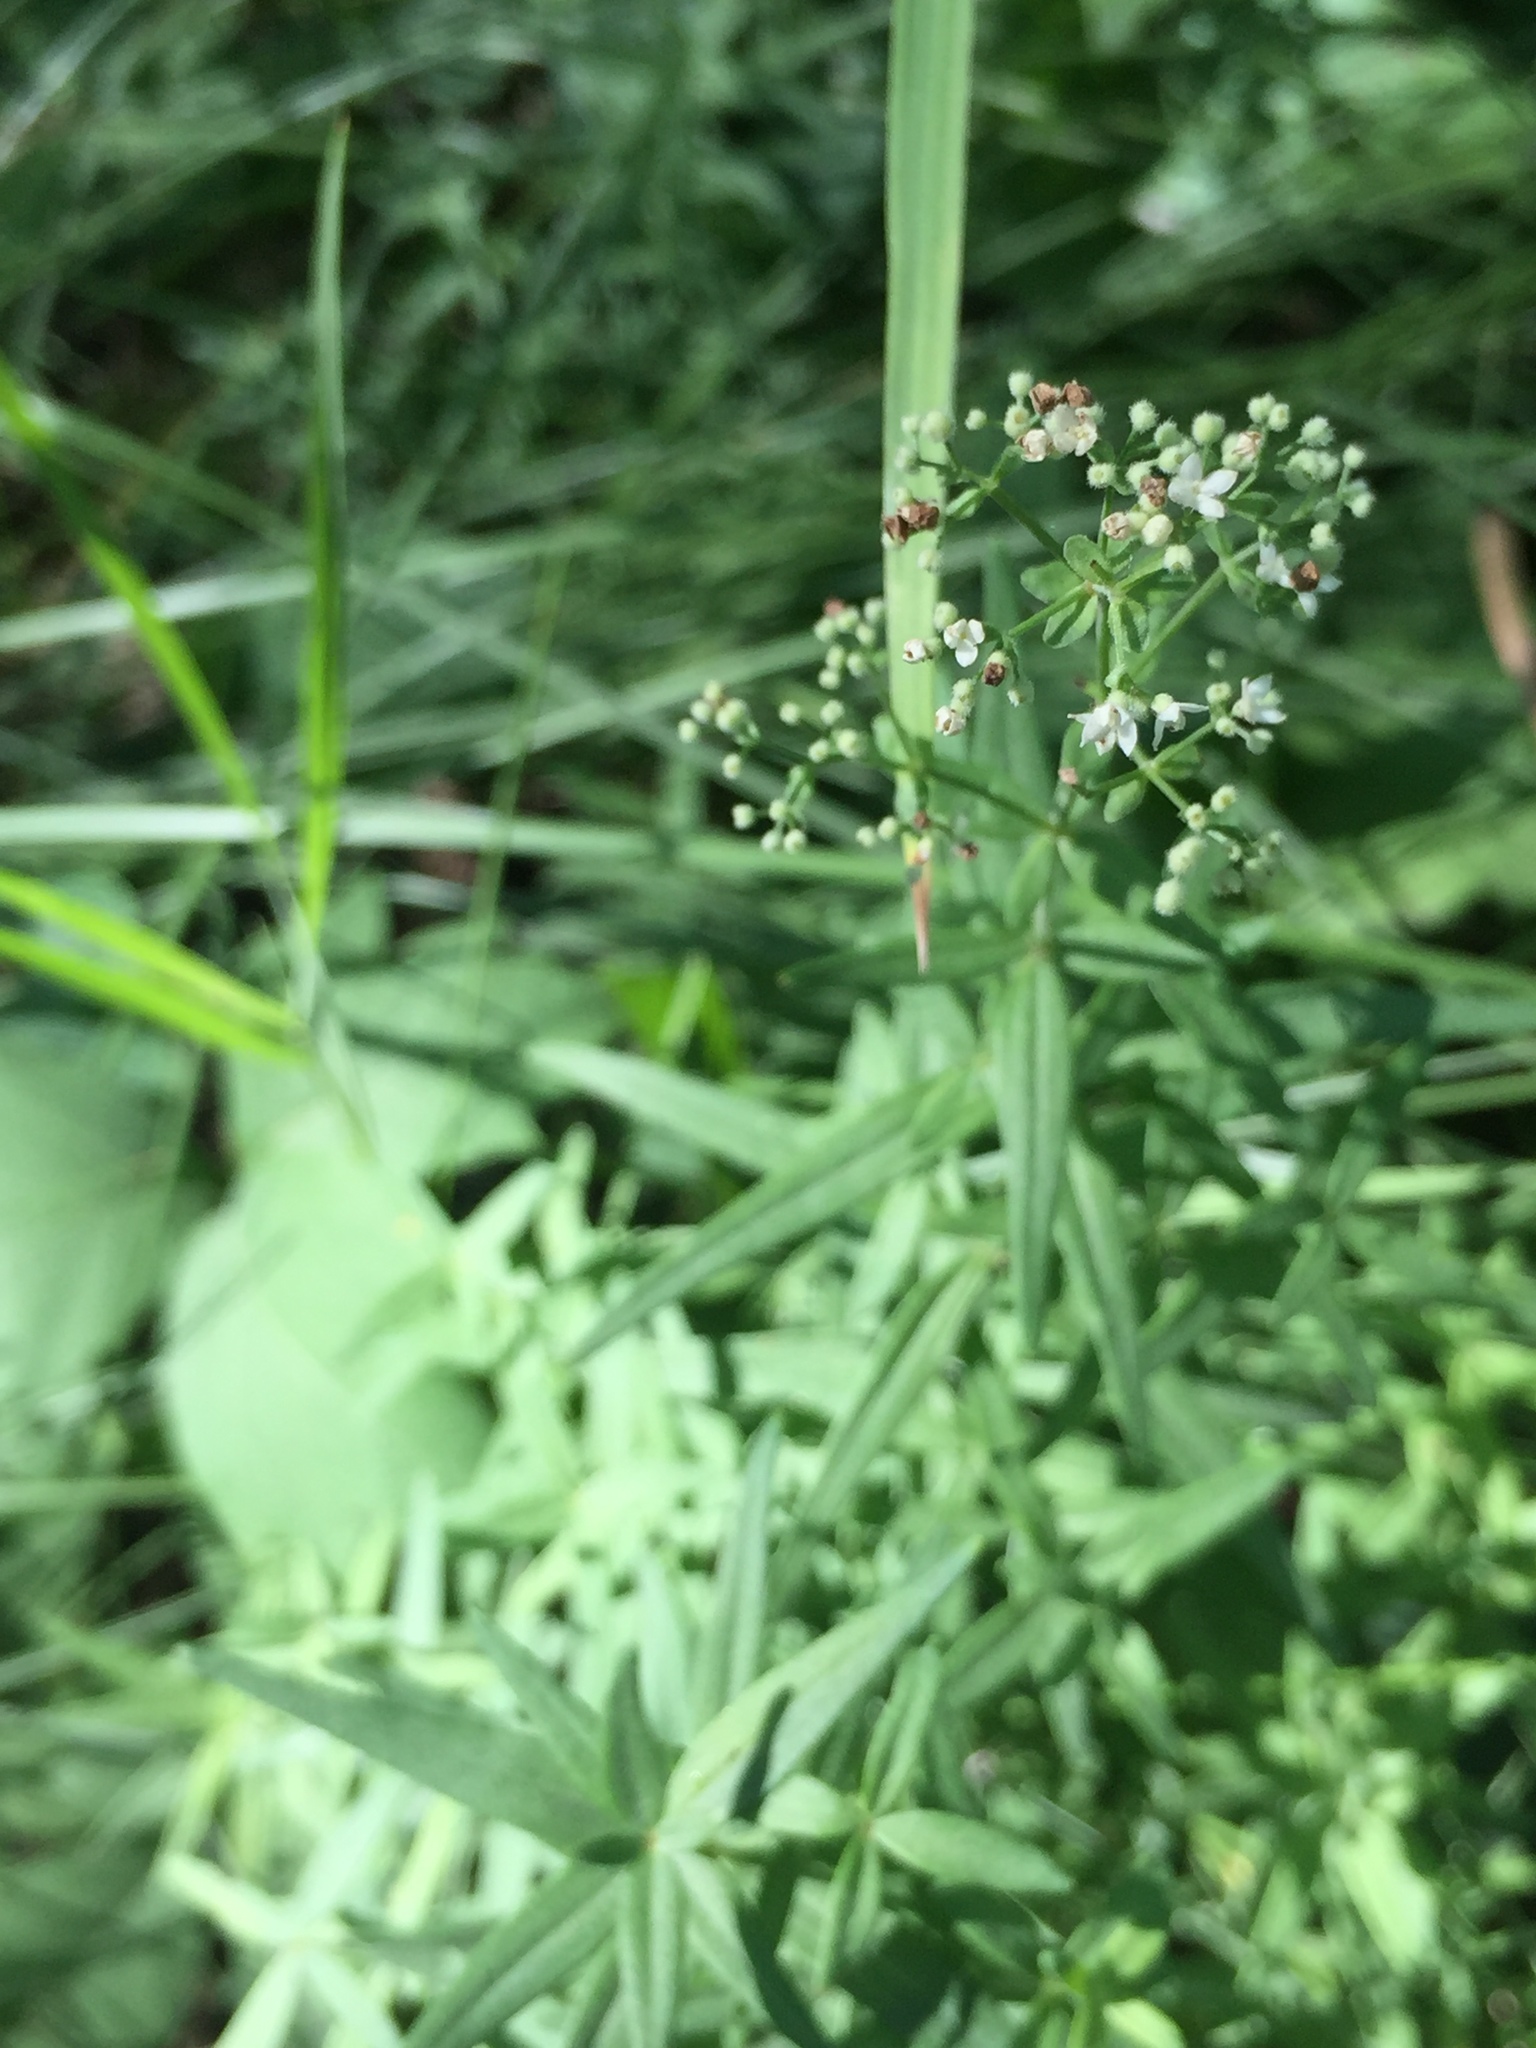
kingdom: Plantae
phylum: Tracheophyta
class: Magnoliopsida
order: Gentianales
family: Rubiaceae
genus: Galium
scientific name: Galium boreale
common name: Northern bedstraw
